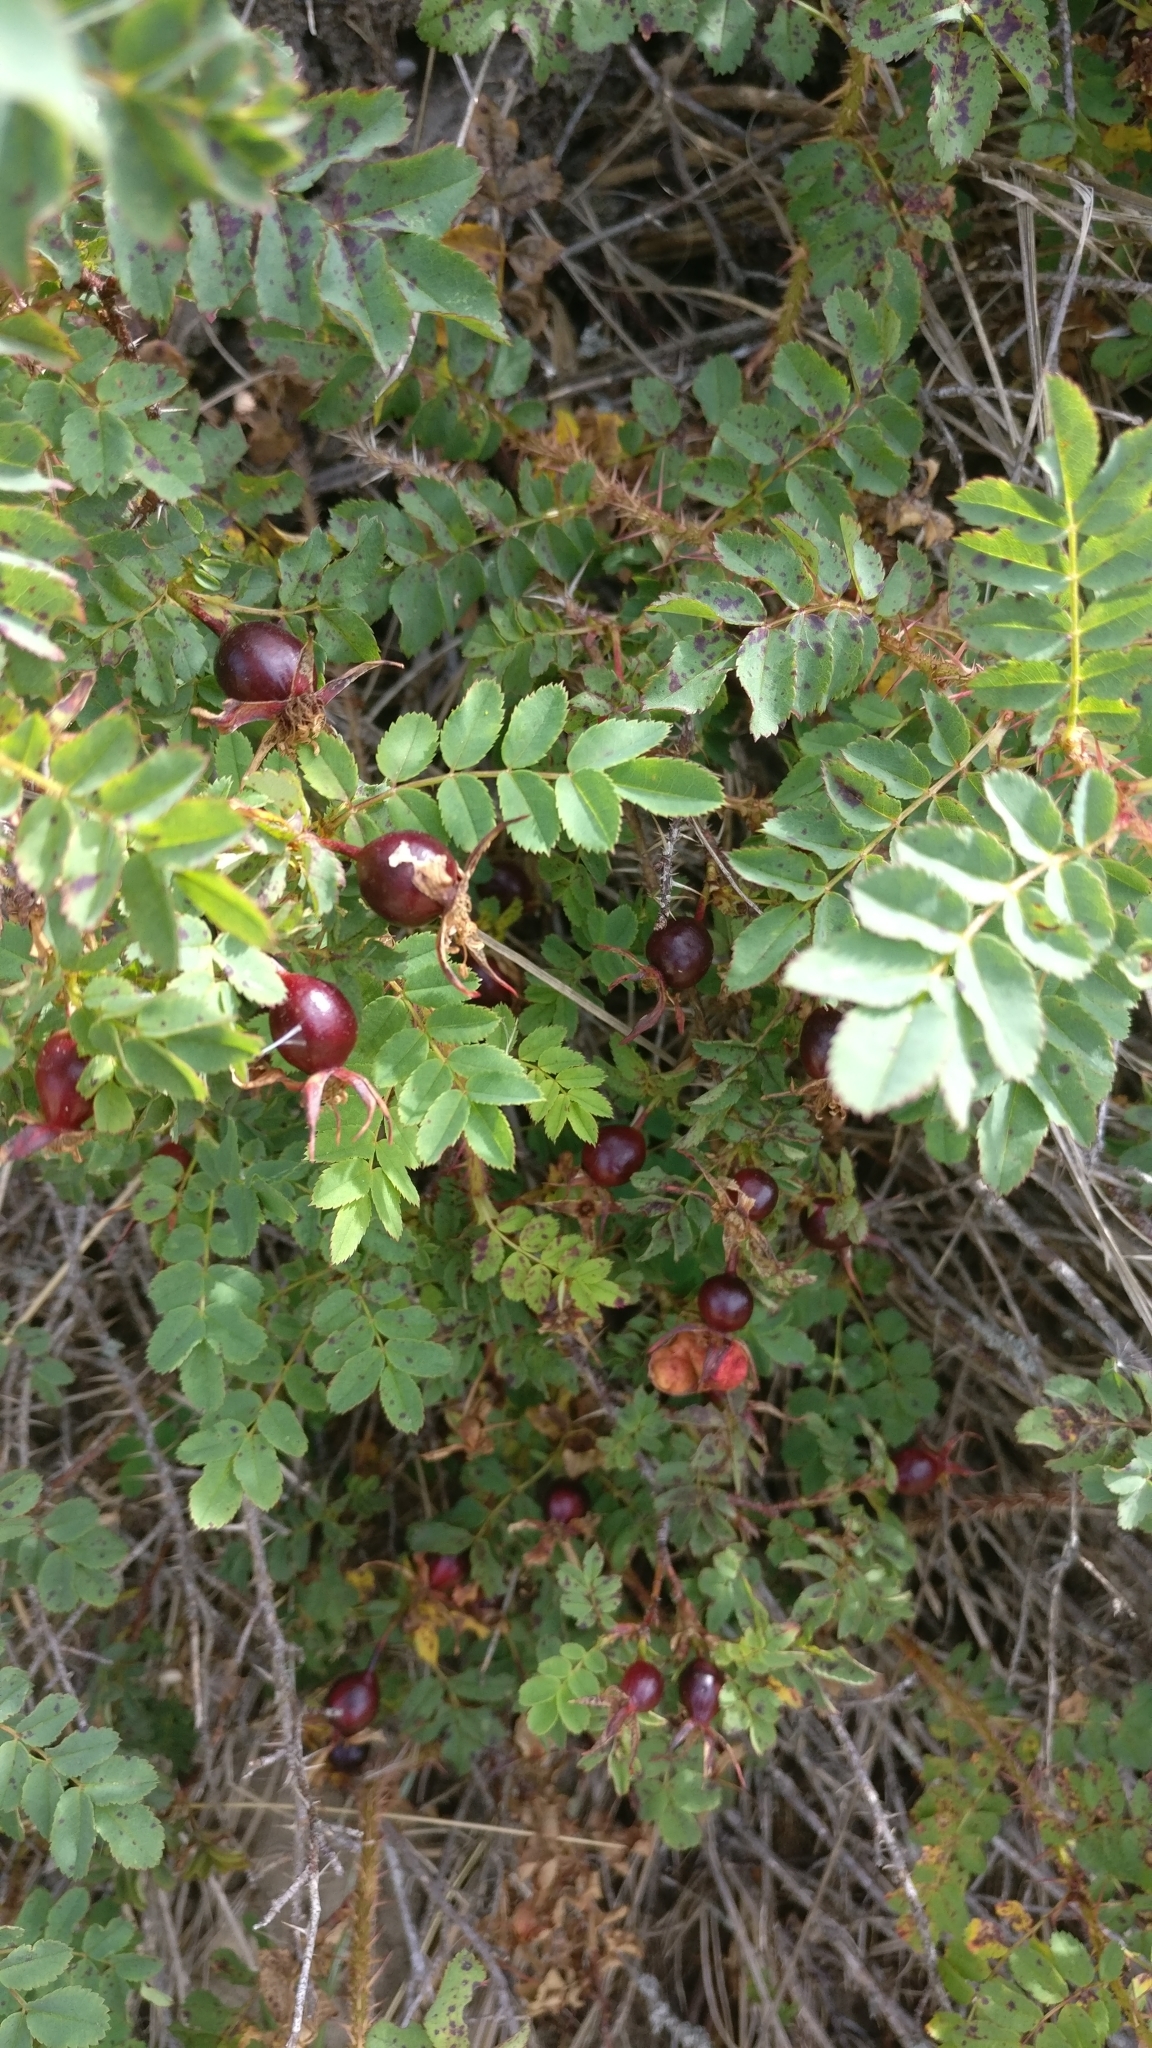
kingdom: Plantae
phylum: Tracheophyta
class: Magnoliopsida
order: Rosales
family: Rosaceae
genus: Rosa
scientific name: Rosa spinosissima
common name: Burnet rose
